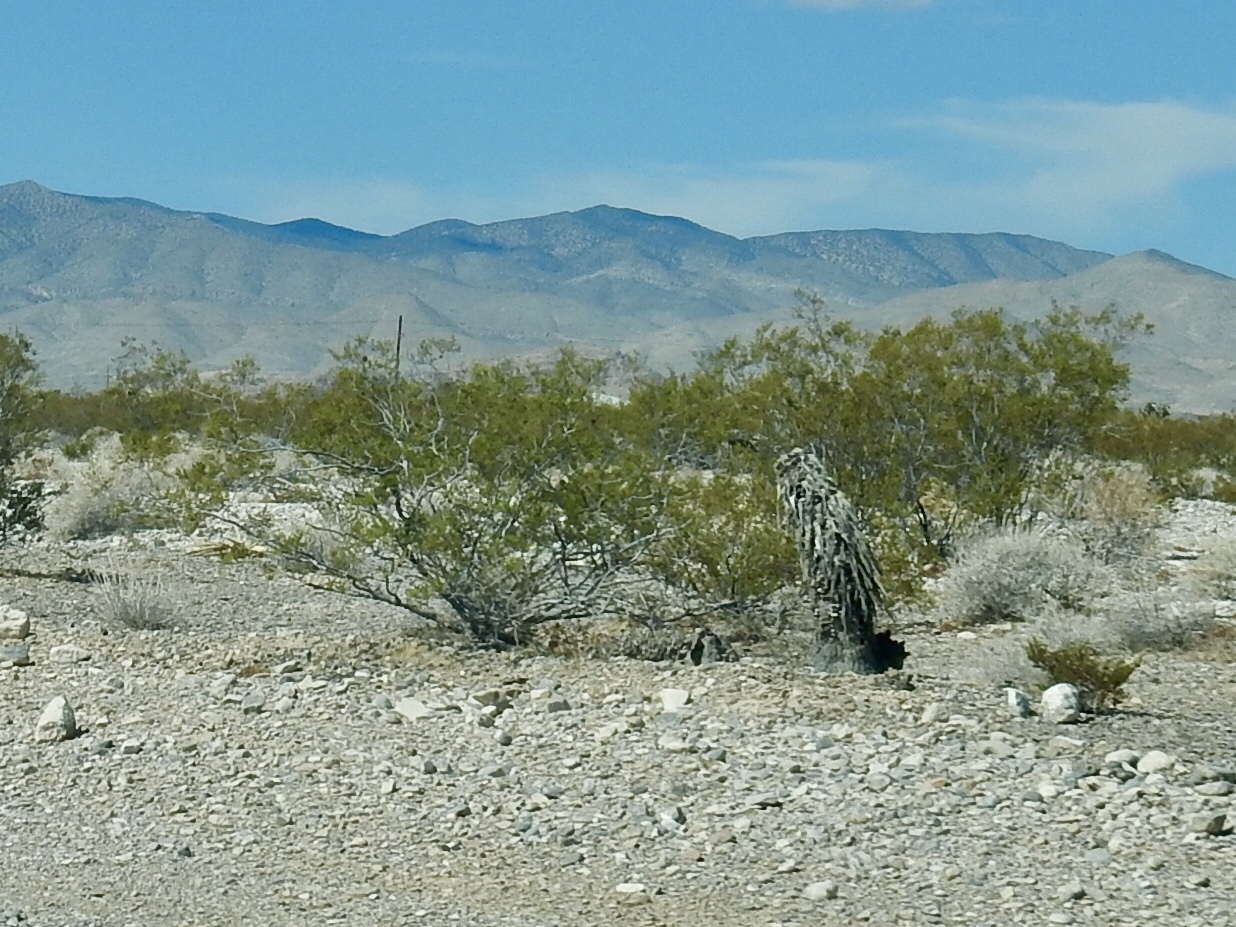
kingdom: Plantae
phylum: Tracheophyta
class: Magnoliopsida
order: Zygophyllales
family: Zygophyllaceae
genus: Larrea
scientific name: Larrea tridentata
